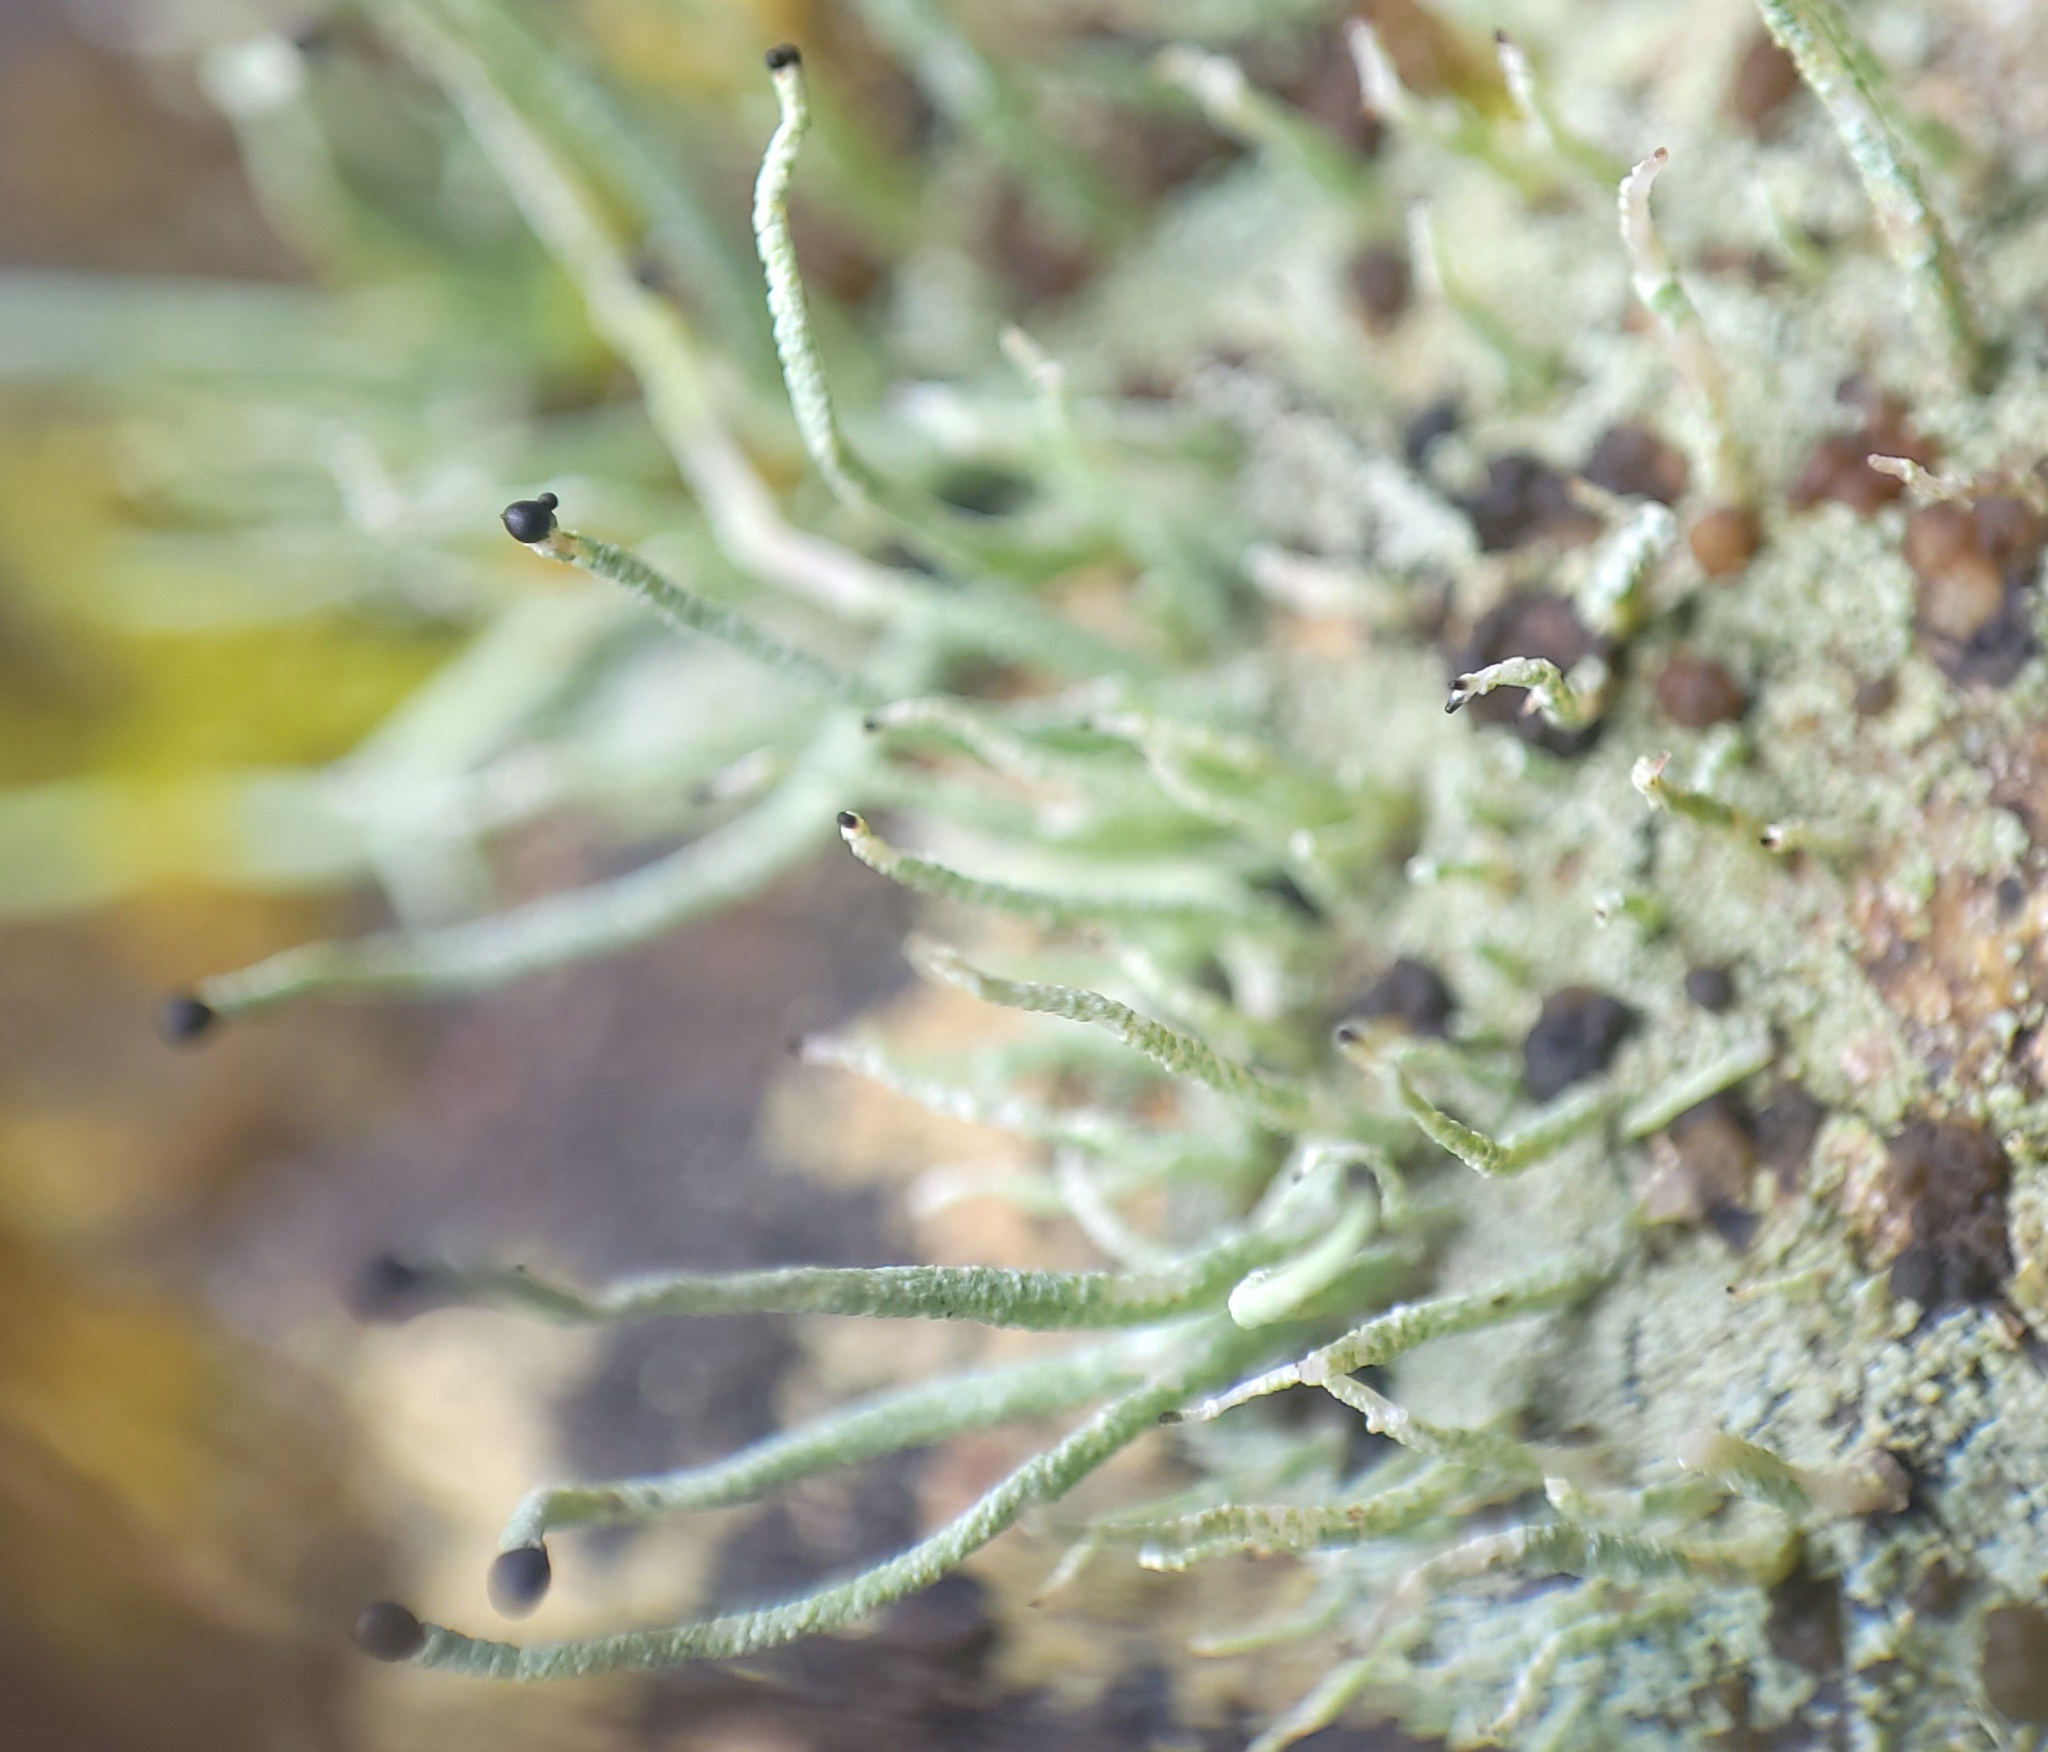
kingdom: Fungi
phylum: Ascomycota
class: Lecanoromycetes
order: Lecanorales
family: Cladoniaceae
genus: Pilophorus
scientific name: Pilophorus acicularis
